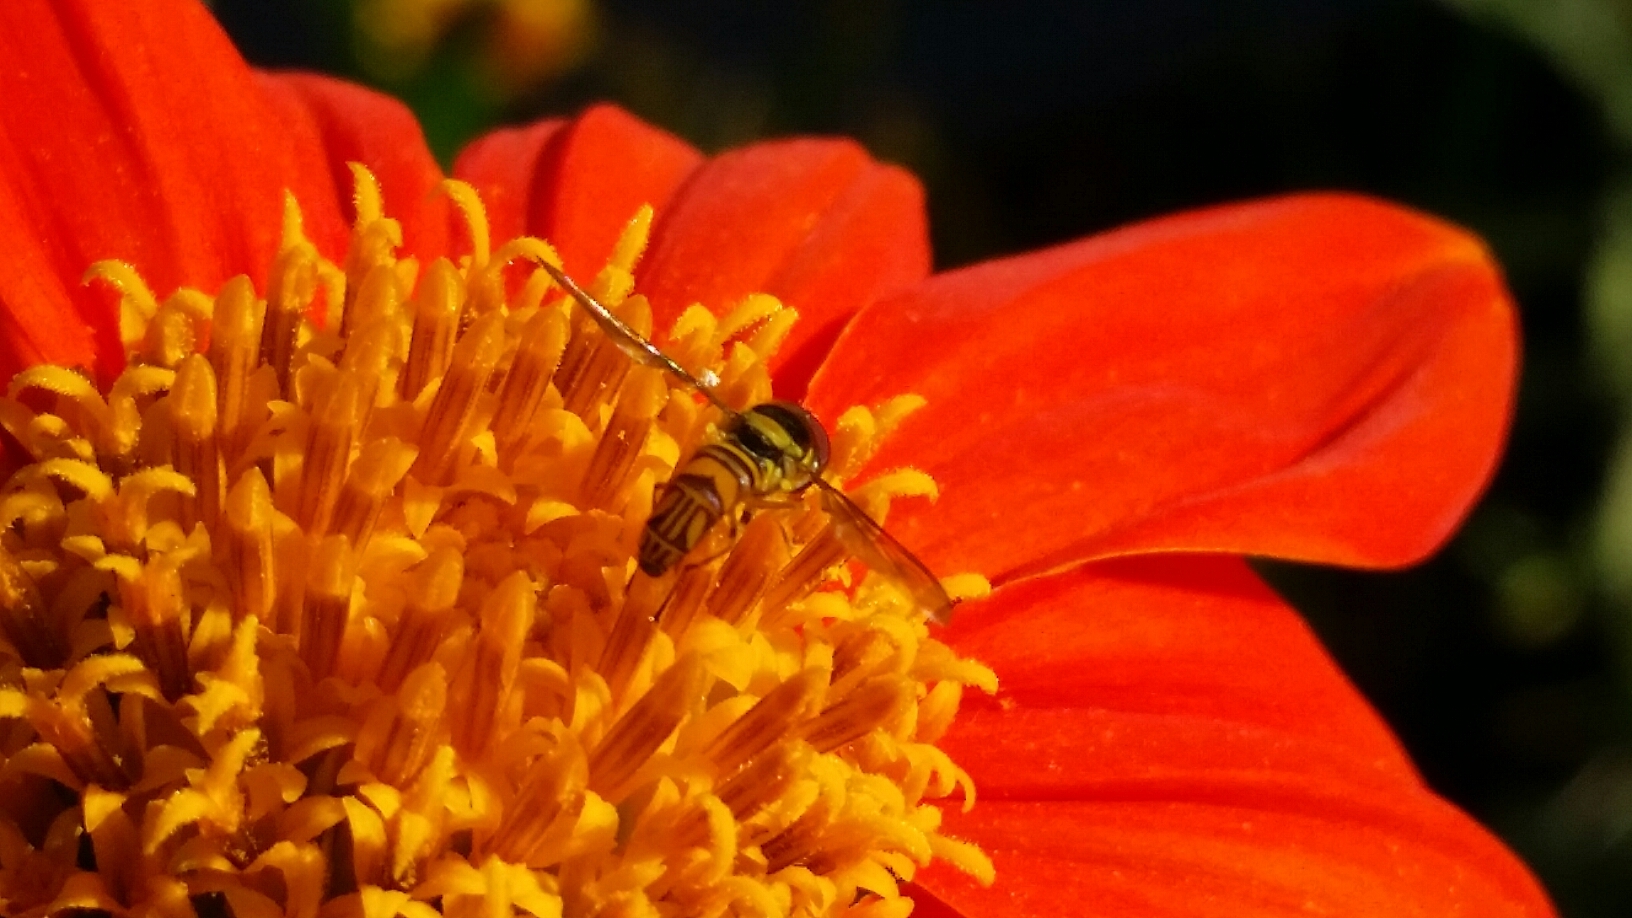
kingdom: Animalia
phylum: Arthropoda
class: Insecta
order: Diptera
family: Syrphidae
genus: Allograpta
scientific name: Allograpta obliqua
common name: Common oblique syrphid
